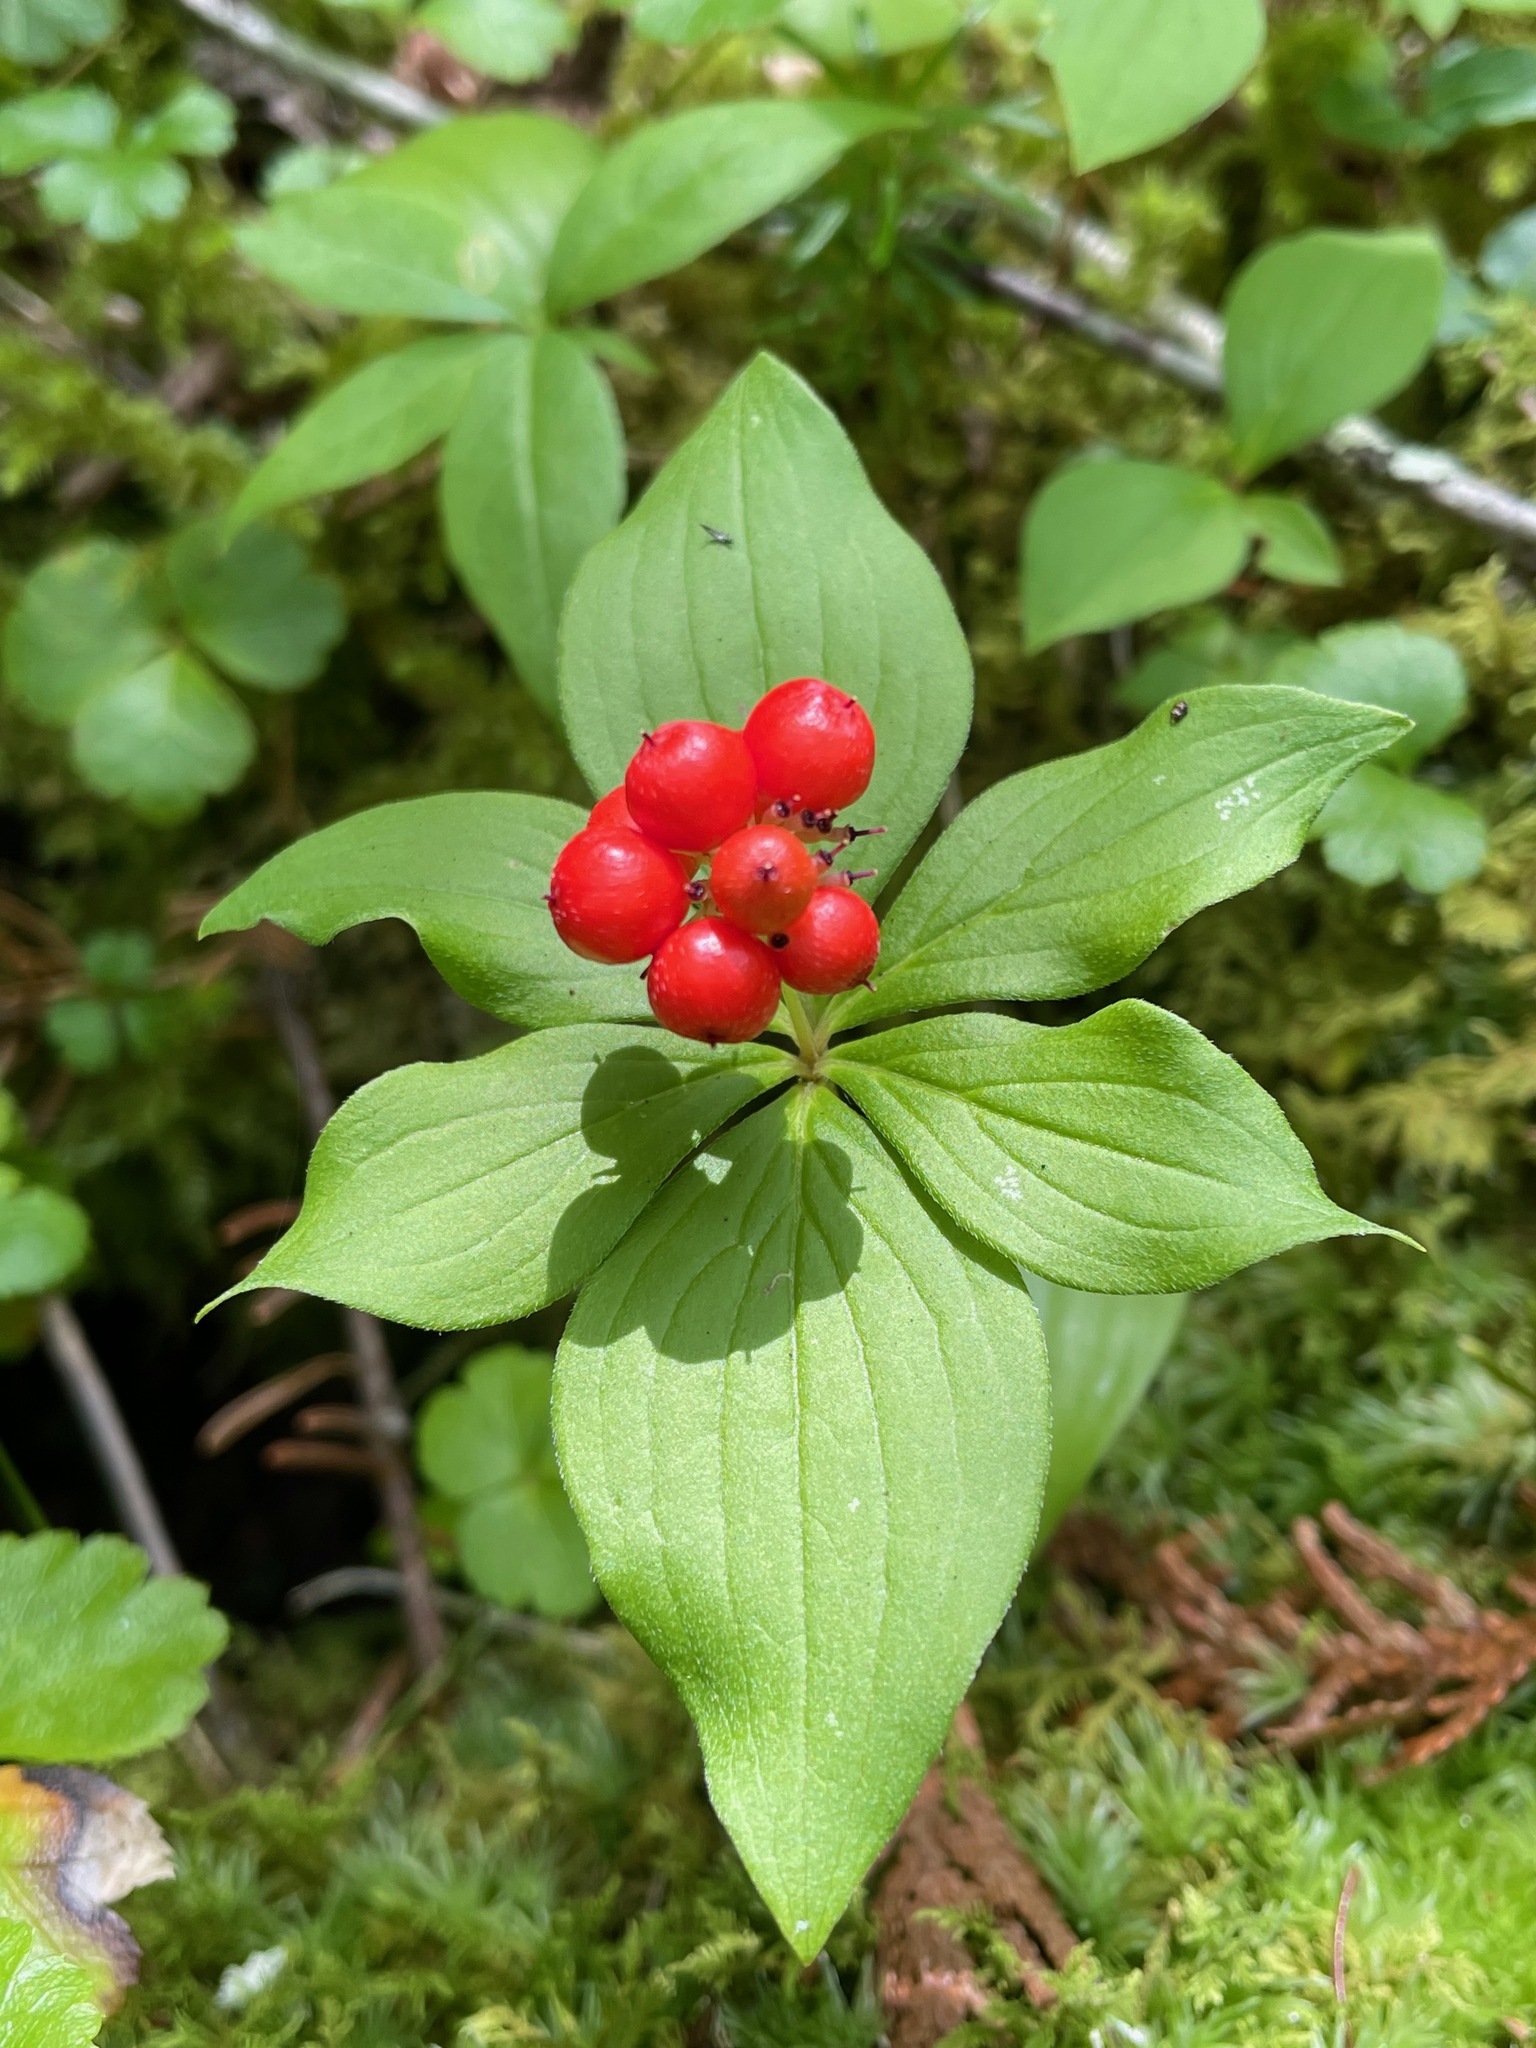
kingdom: Plantae
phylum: Tracheophyta
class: Magnoliopsida
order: Cornales
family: Cornaceae
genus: Cornus
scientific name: Cornus canadensis
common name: Creeping dogwood
